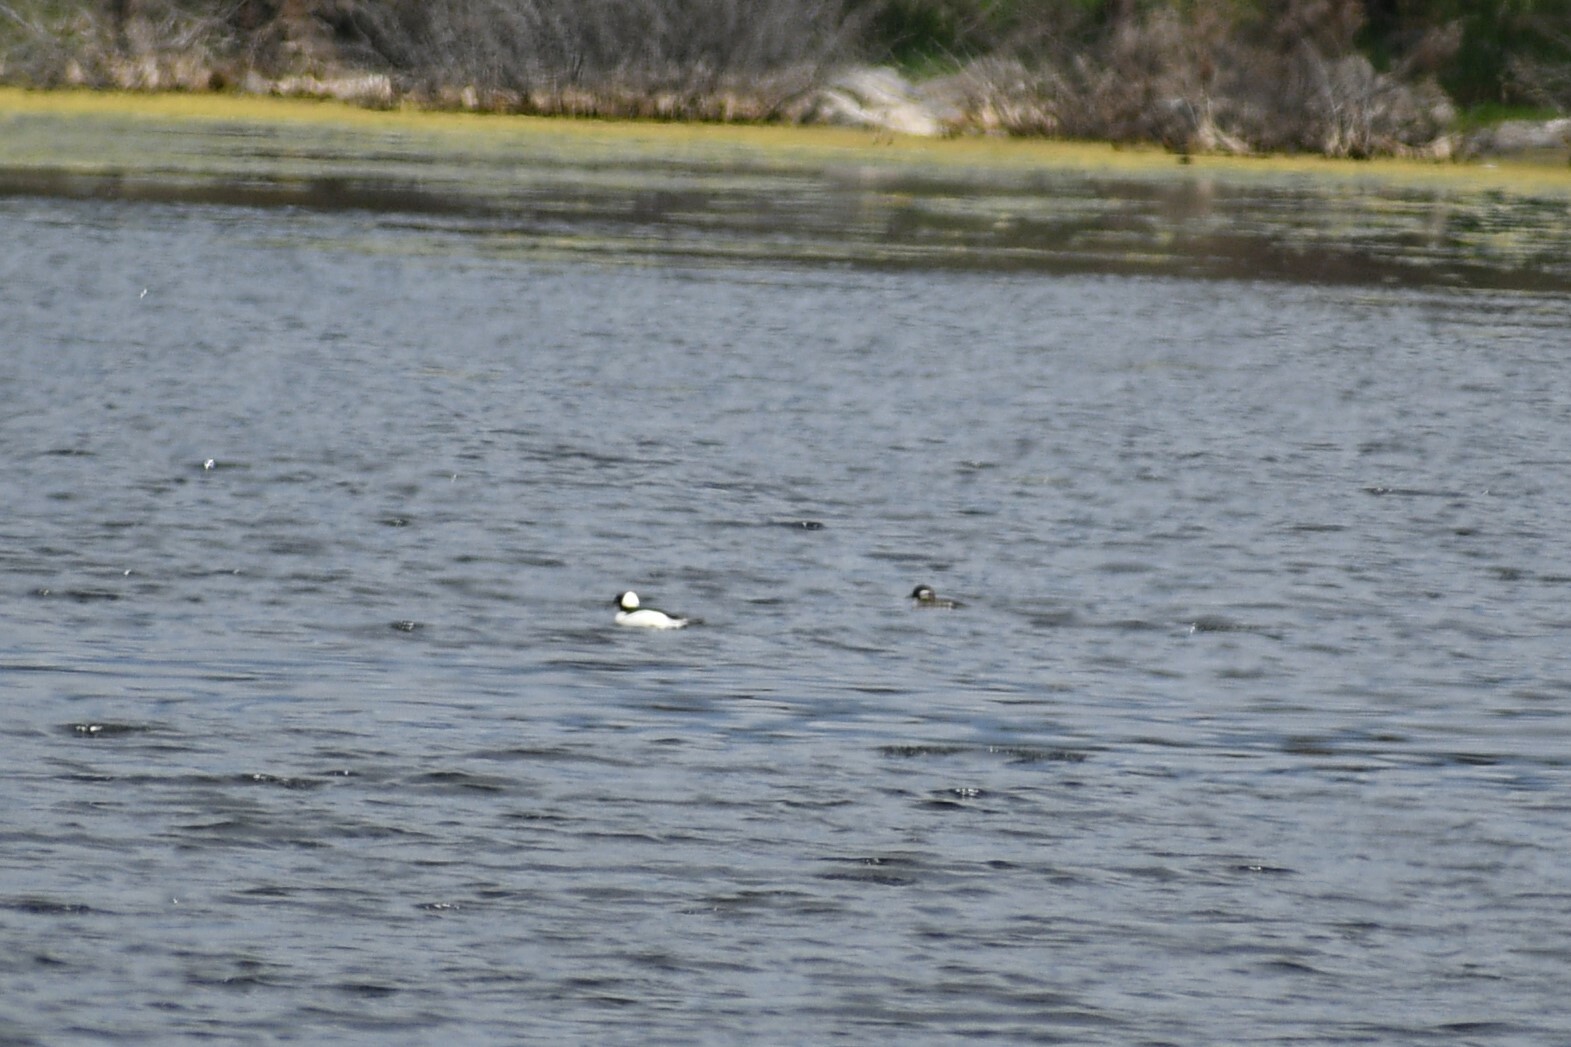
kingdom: Animalia
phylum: Chordata
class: Aves
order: Anseriformes
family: Anatidae
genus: Bucephala
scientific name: Bucephala albeola
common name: Bufflehead
